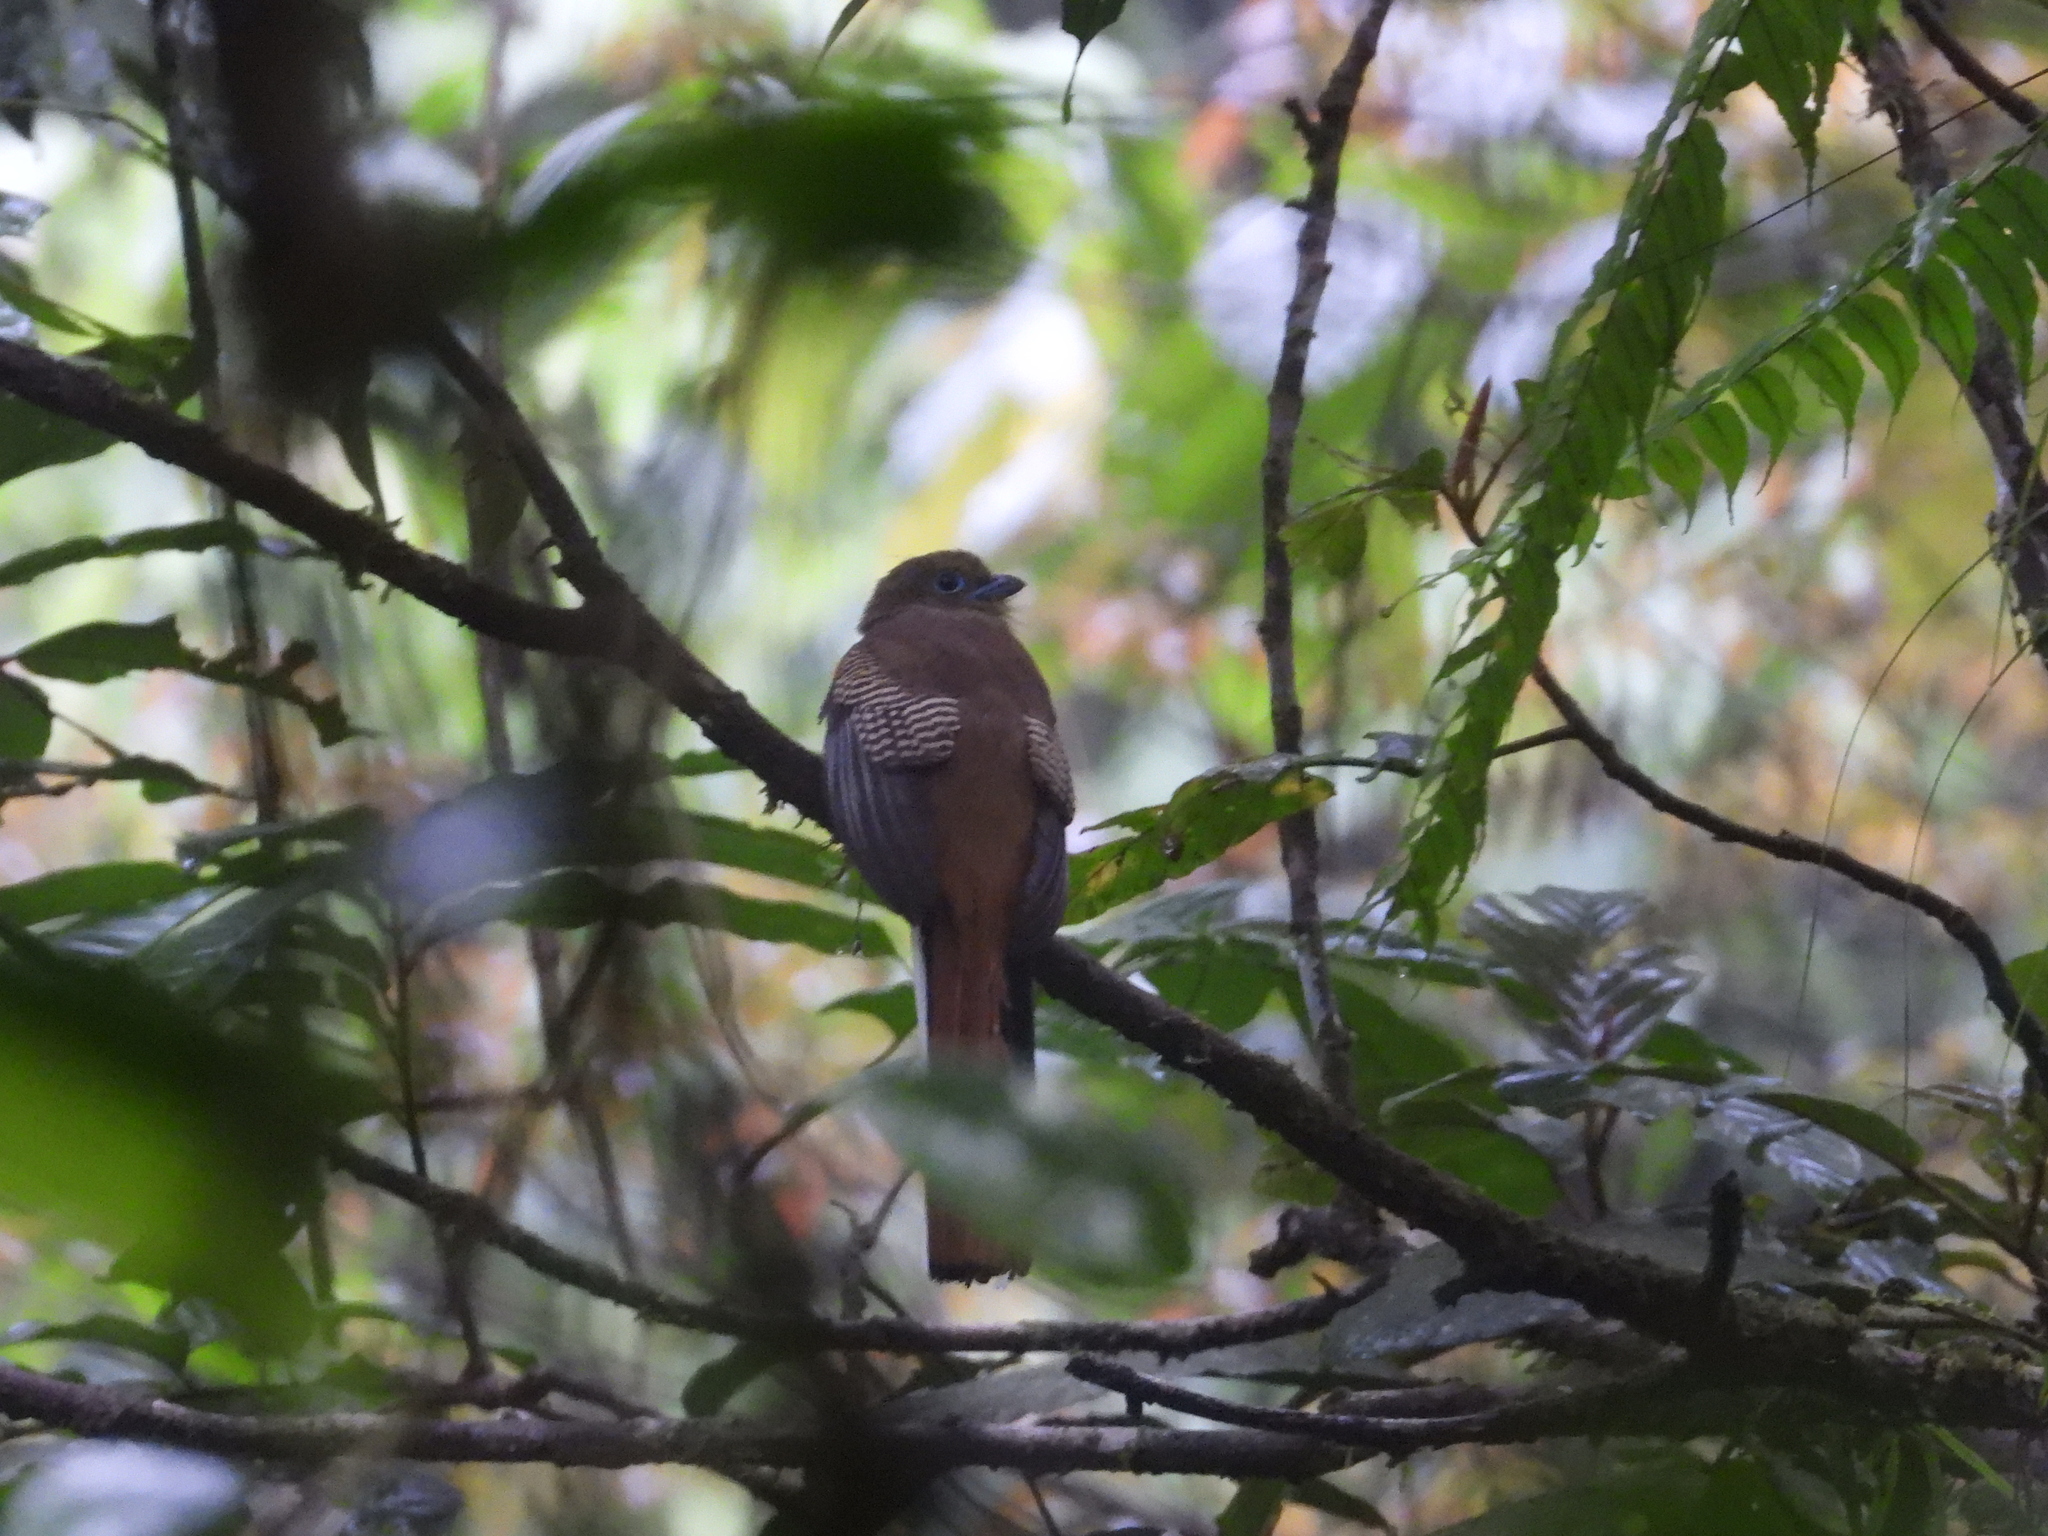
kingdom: Animalia
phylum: Chordata
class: Aves
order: Trogoniformes
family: Trogonidae
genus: Harpactes
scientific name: Harpactes oreskios
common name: Orange-breasted trogon
